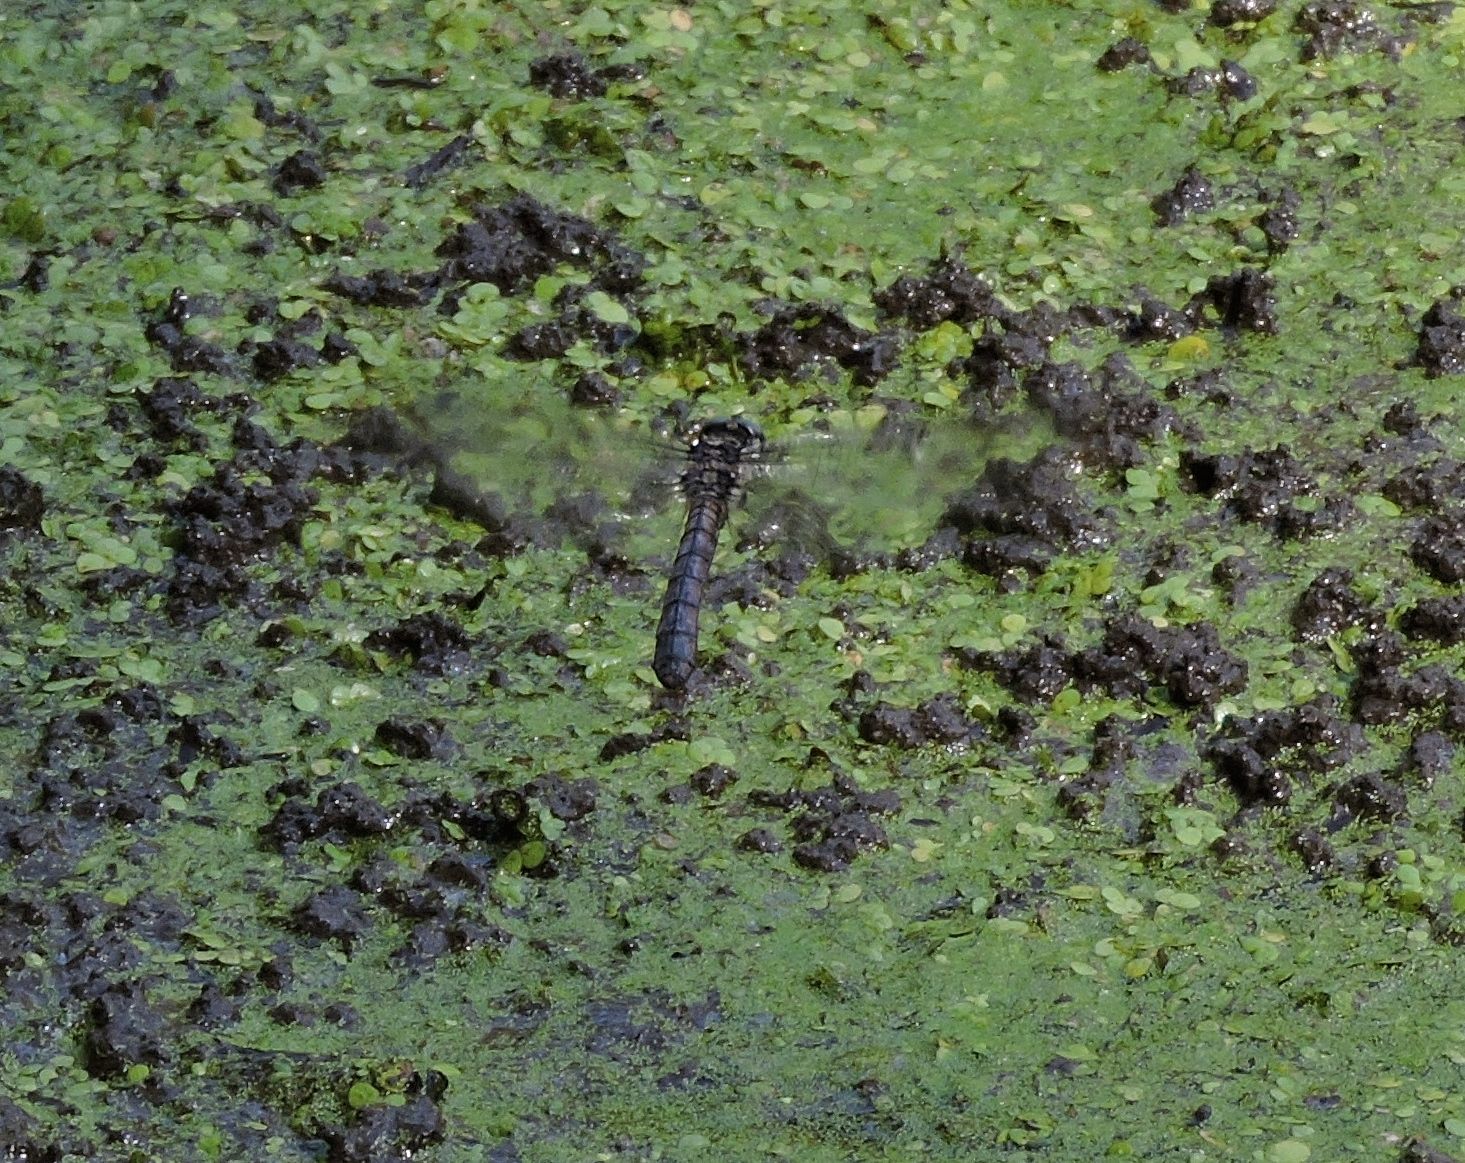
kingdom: Animalia
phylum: Arthropoda
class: Insecta
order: Odonata
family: Libellulidae
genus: Libellula
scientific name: Libellula vibrans
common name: Great blue skimmer
